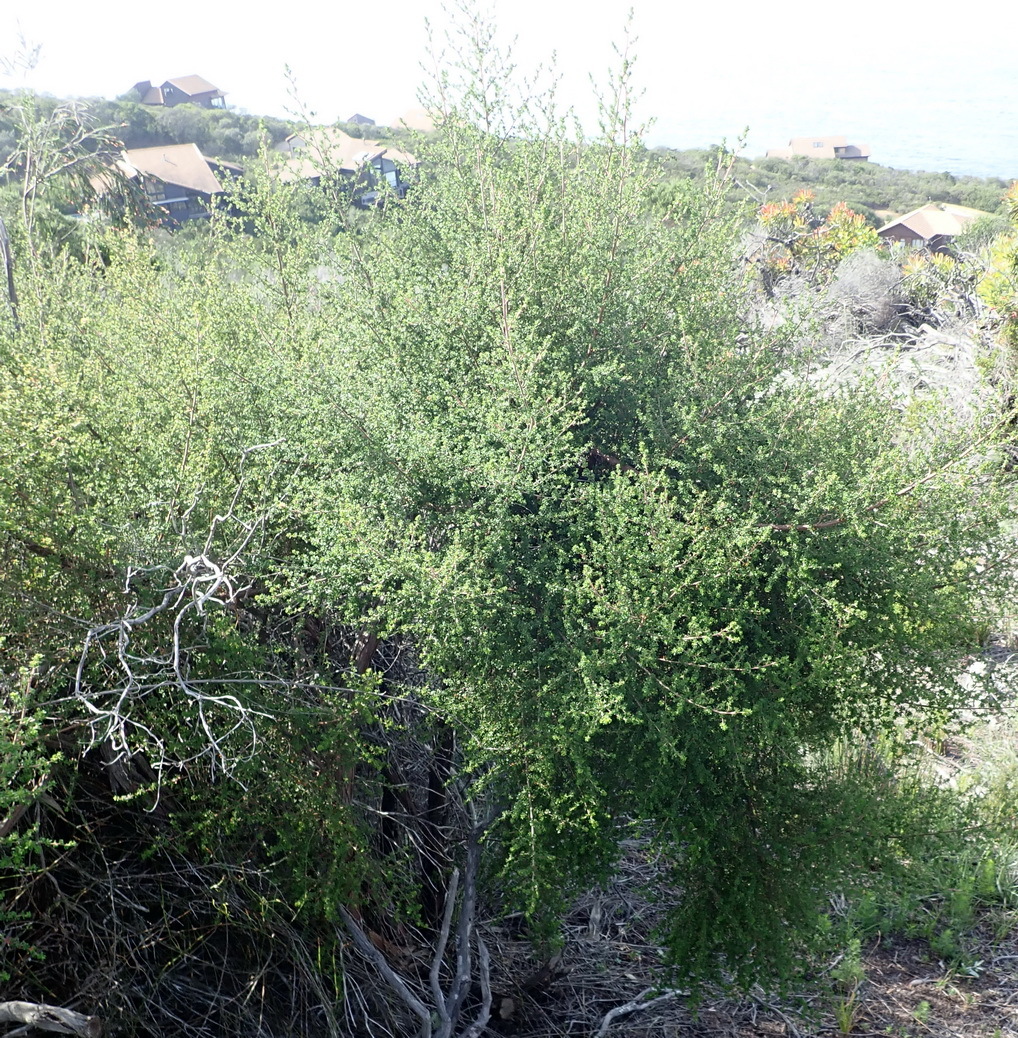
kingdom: Plantae
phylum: Tracheophyta
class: Magnoliopsida
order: Rosales
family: Rosaceae
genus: Cliffortia
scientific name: Cliffortia serpyllifolia
